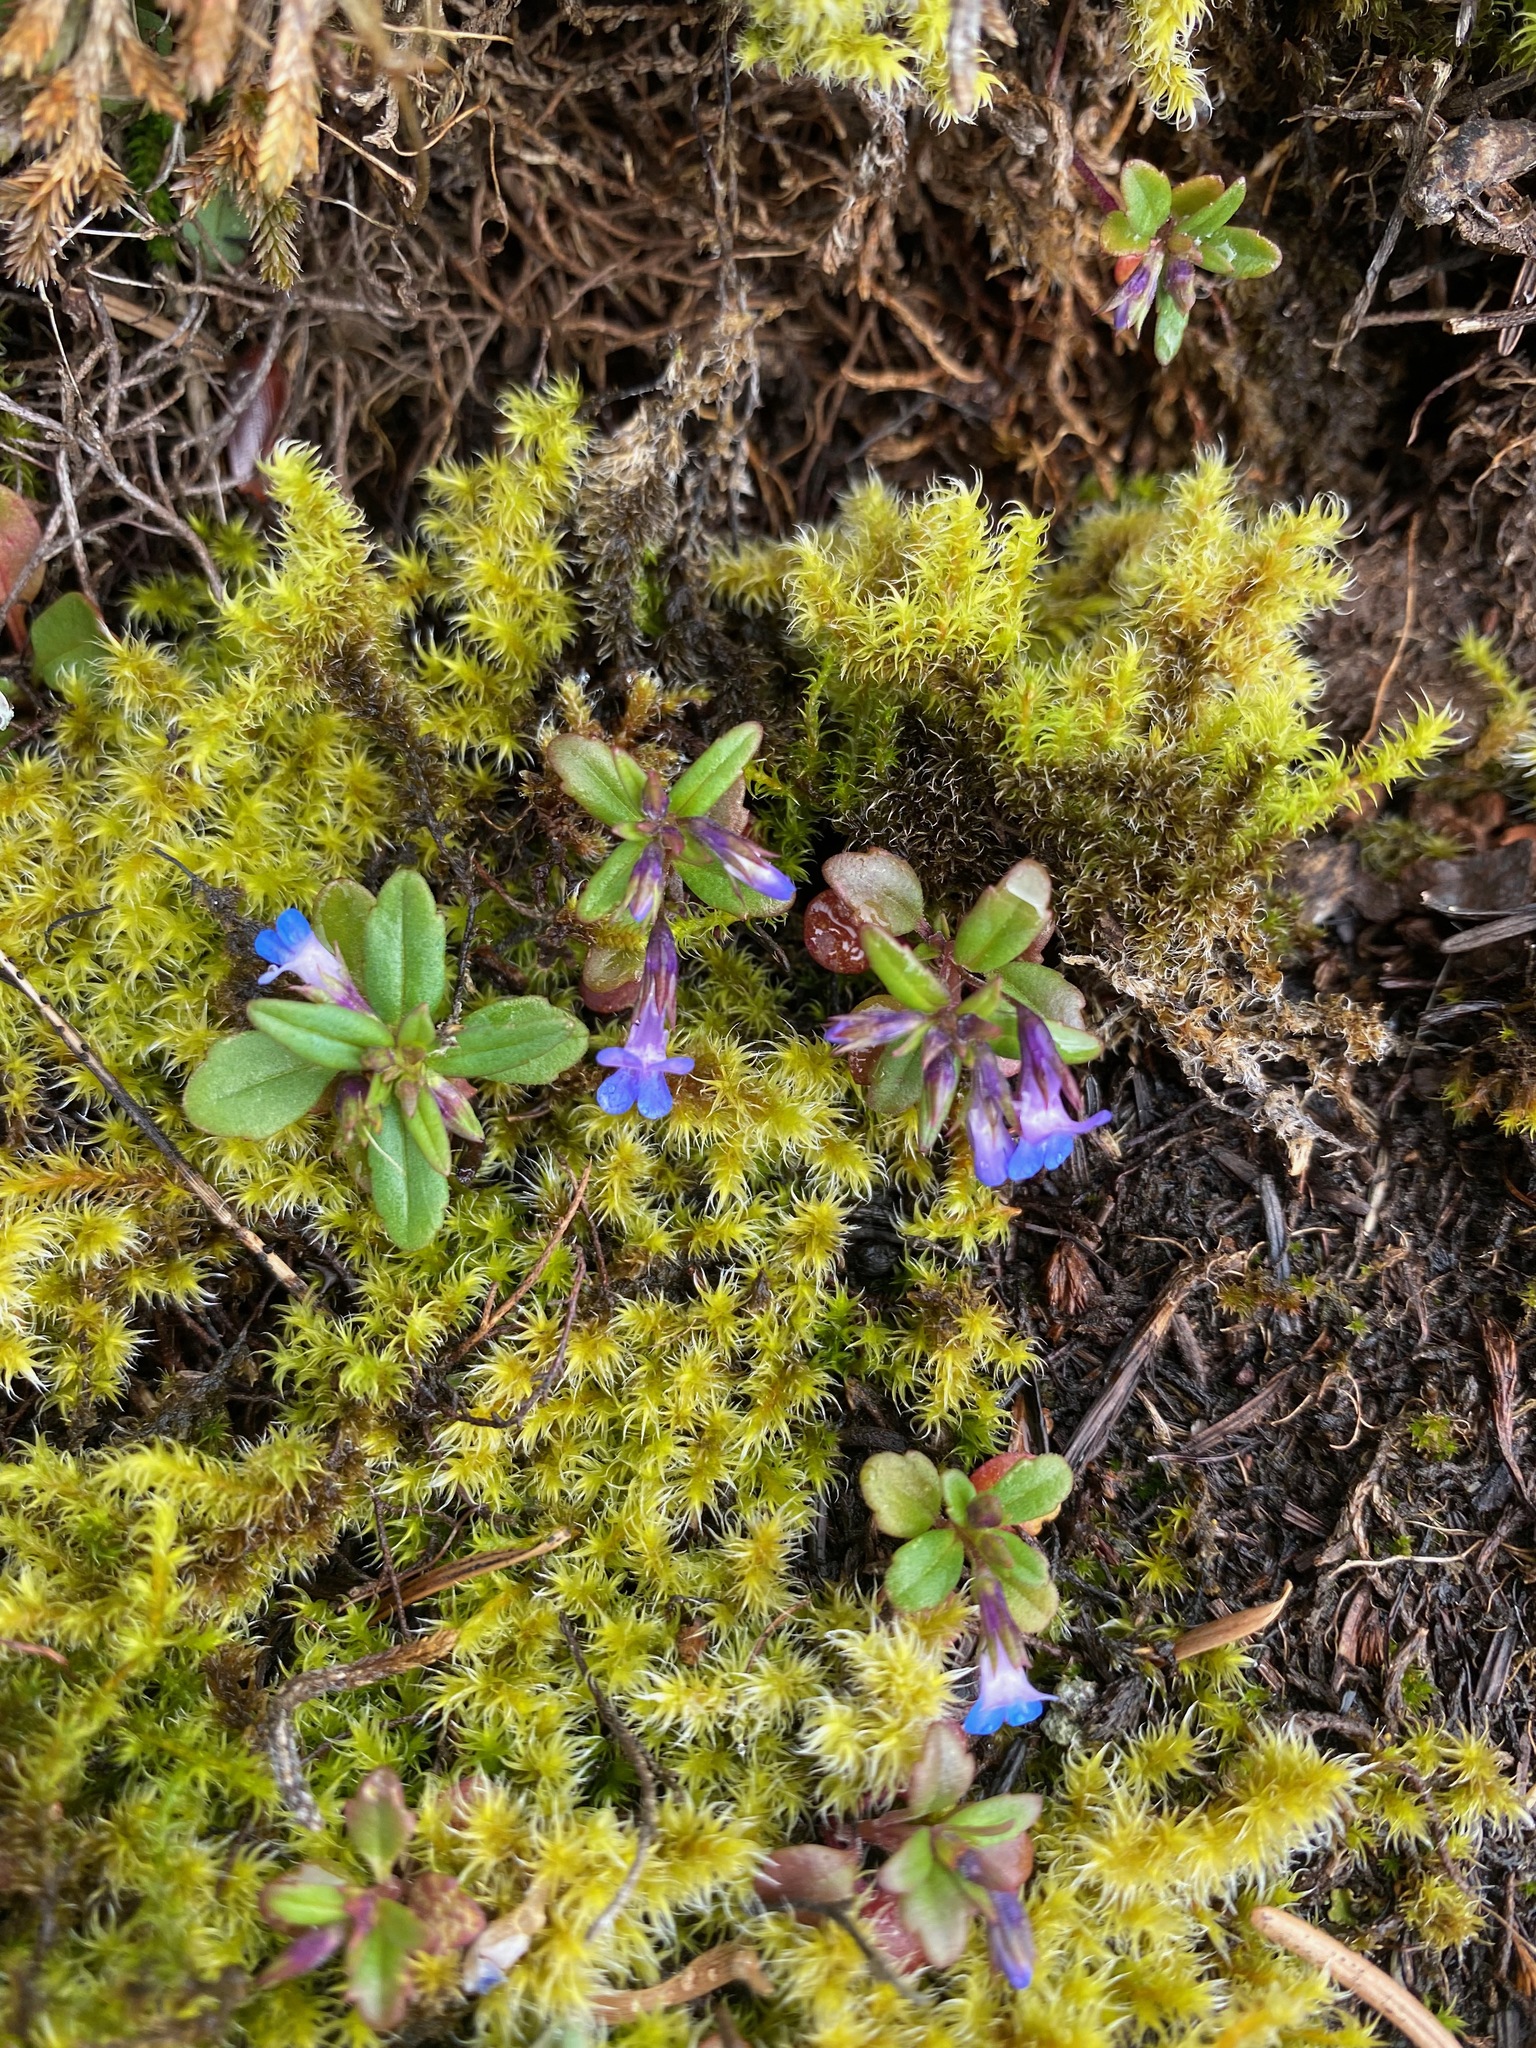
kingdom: Plantae
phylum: Tracheophyta
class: Magnoliopsida
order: Lamiales
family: Plantaginaceae
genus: Collinsia
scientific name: Collinsia parviflora
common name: Blue-lips
